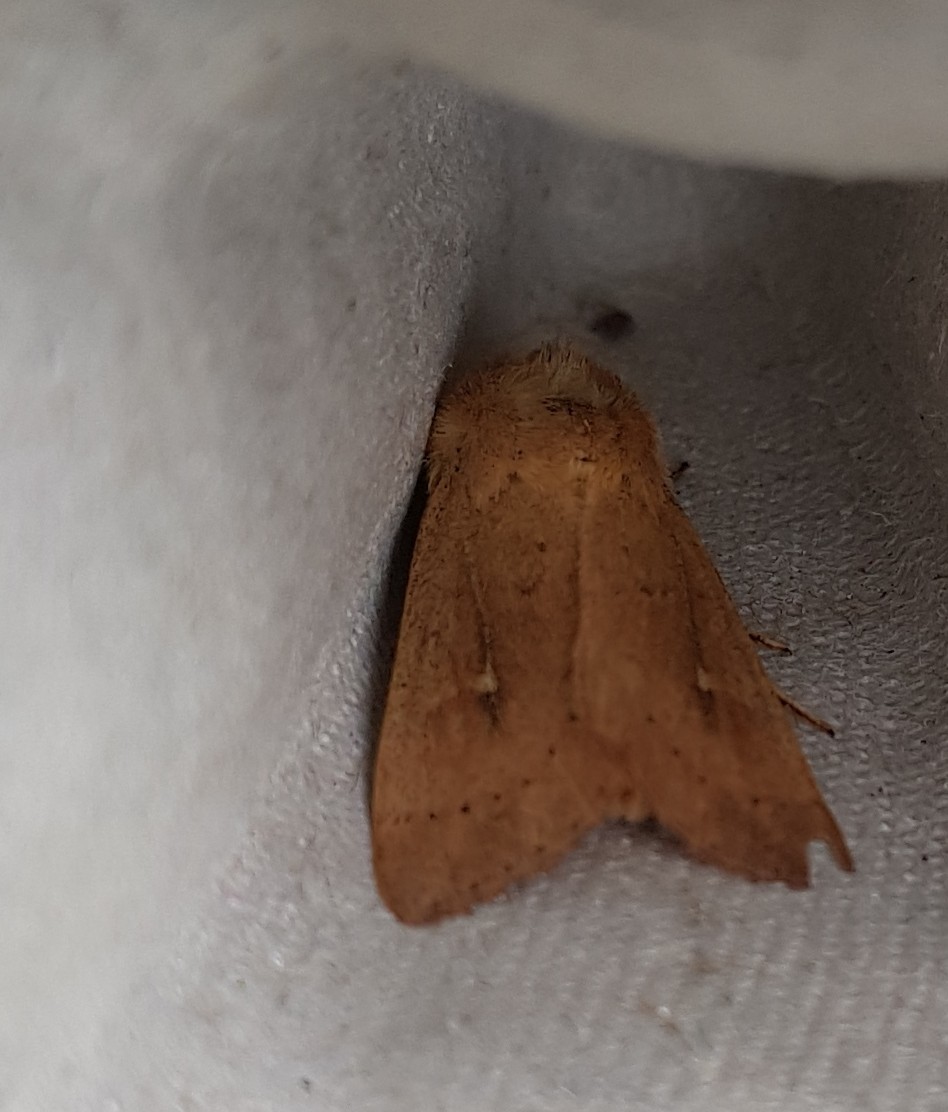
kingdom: Animalia
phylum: Arthropoda
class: Insecta
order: Lepidoptera
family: Noctuidae
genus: Mythimna
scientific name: Mythimna ferrago
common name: Clay
